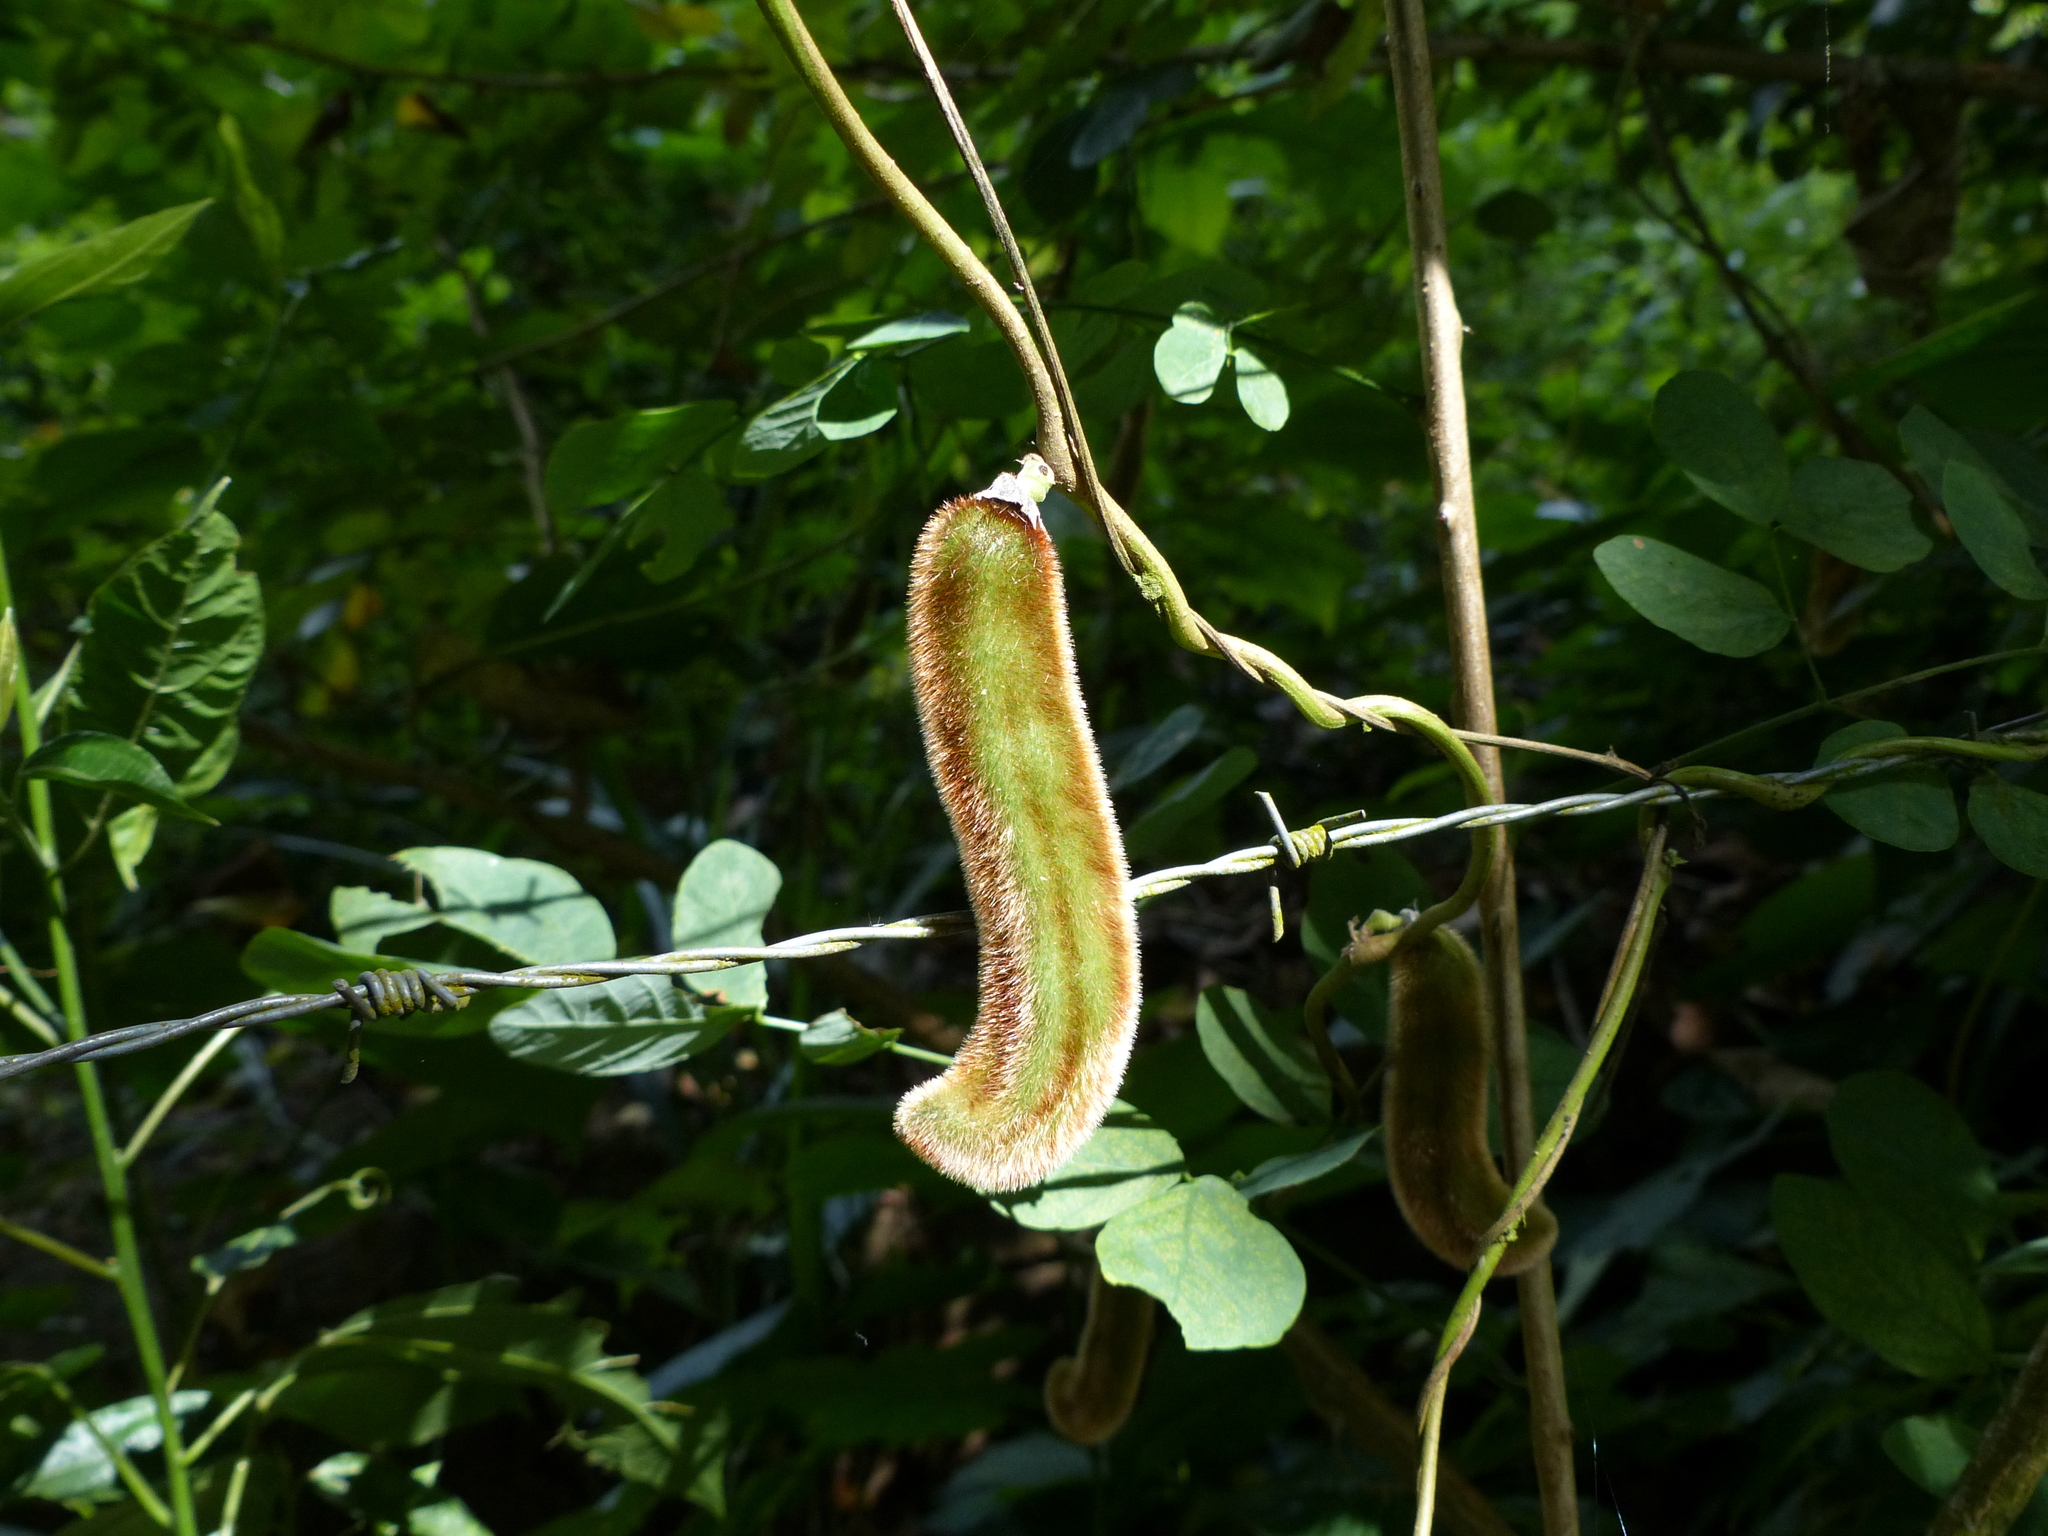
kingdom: Plantae
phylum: Tracheophyta
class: Magnoliopsida
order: Fabales
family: Fabaceae
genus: Mucuna
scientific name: Mucuna pruriens
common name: Cow-itch
